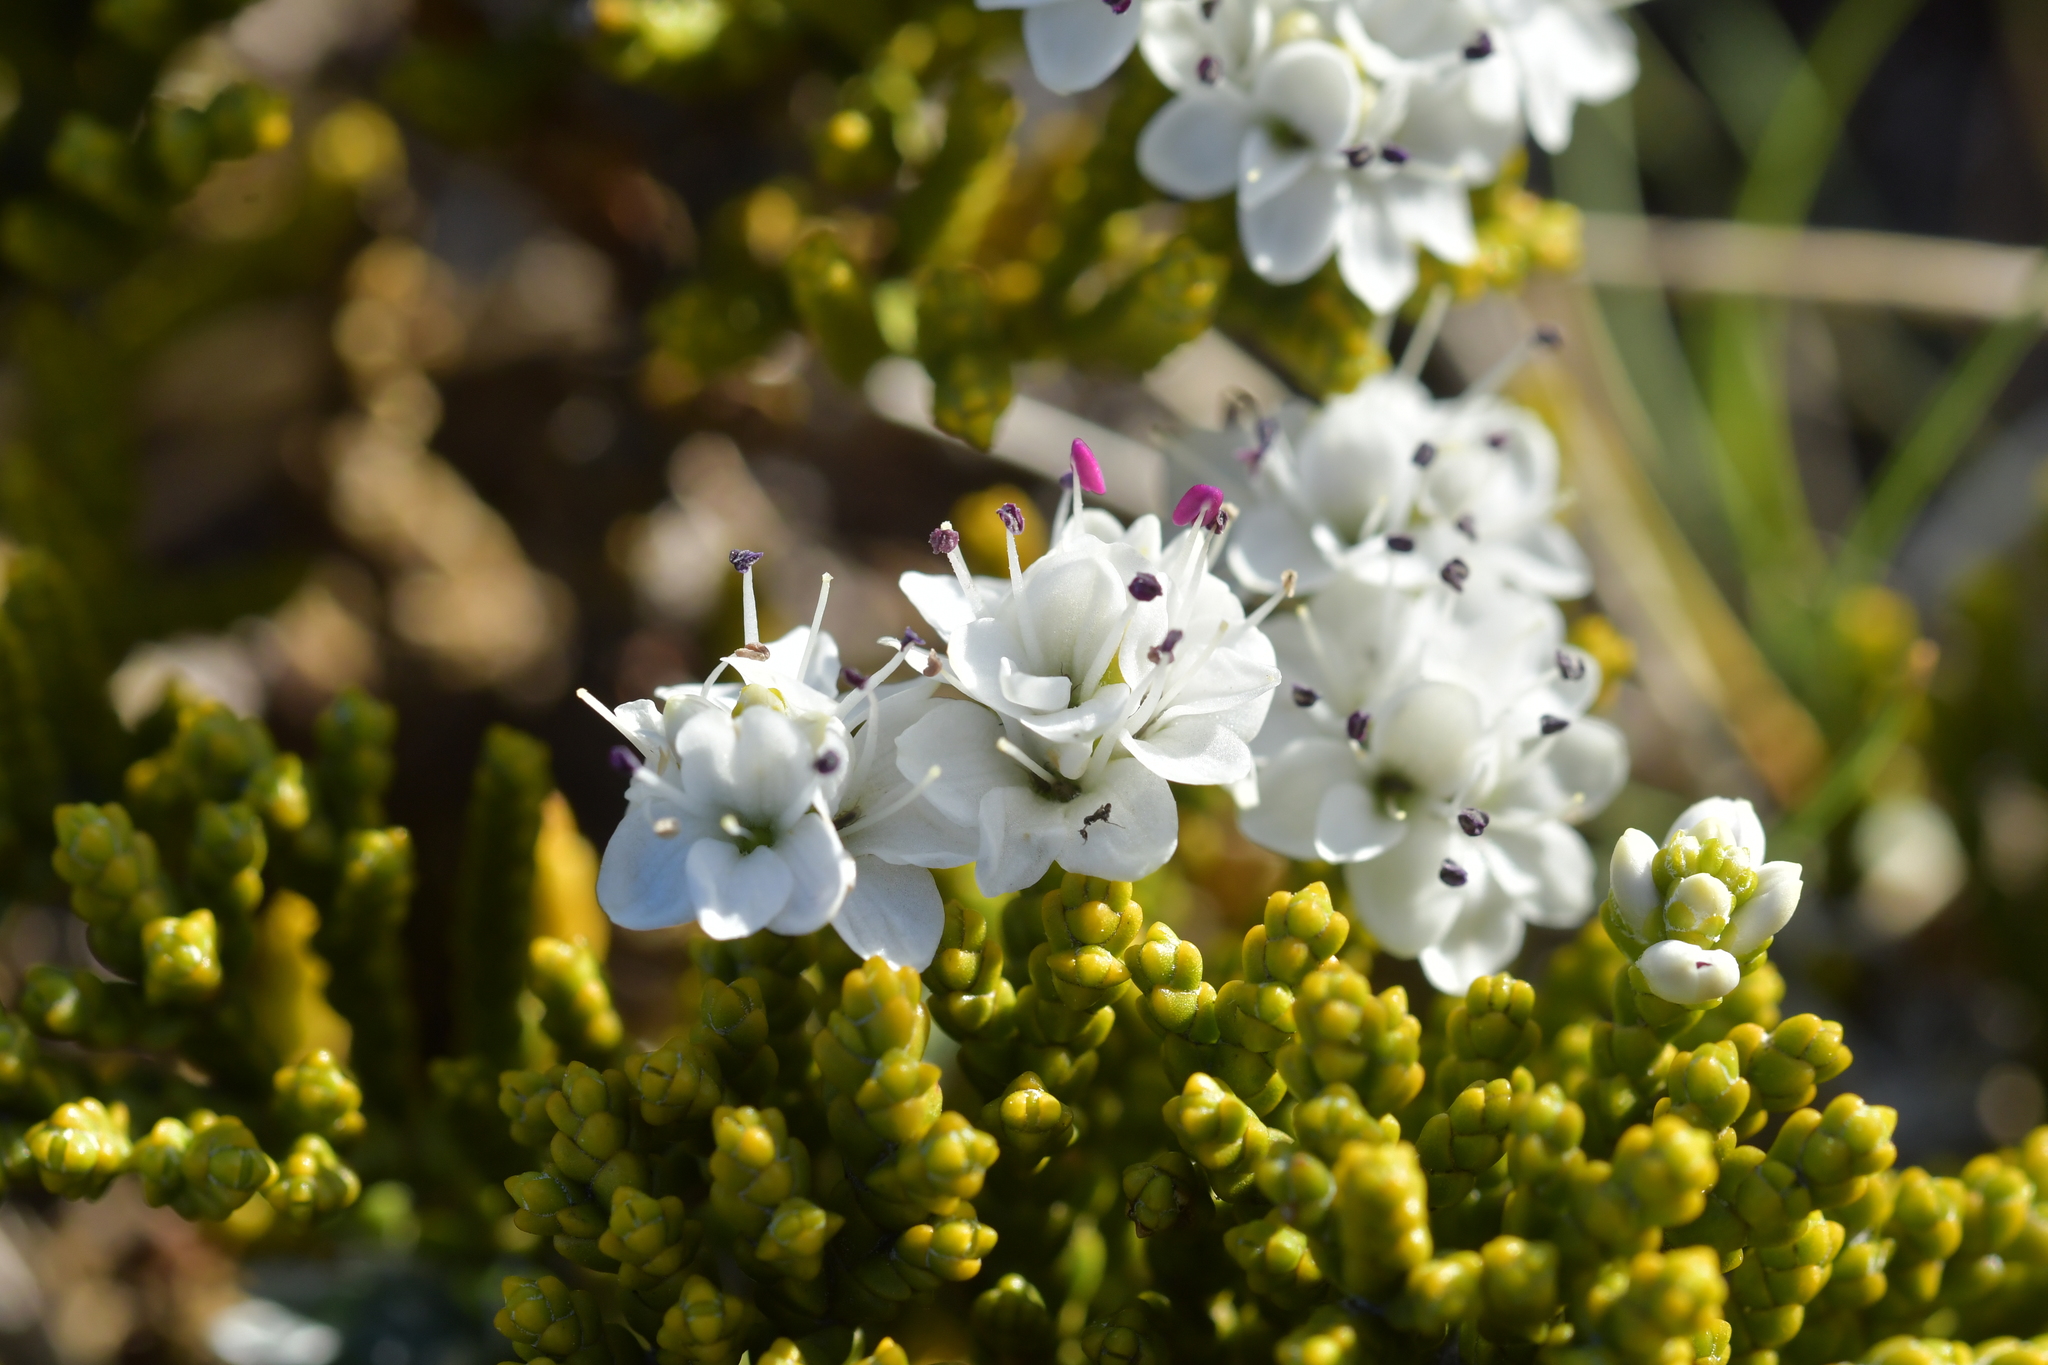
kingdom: Plantae
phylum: Tracheophyta
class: Magnoliopsida
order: Lamiales
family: Plantaginaceae
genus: Veronica
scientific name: Veronica tetragona
